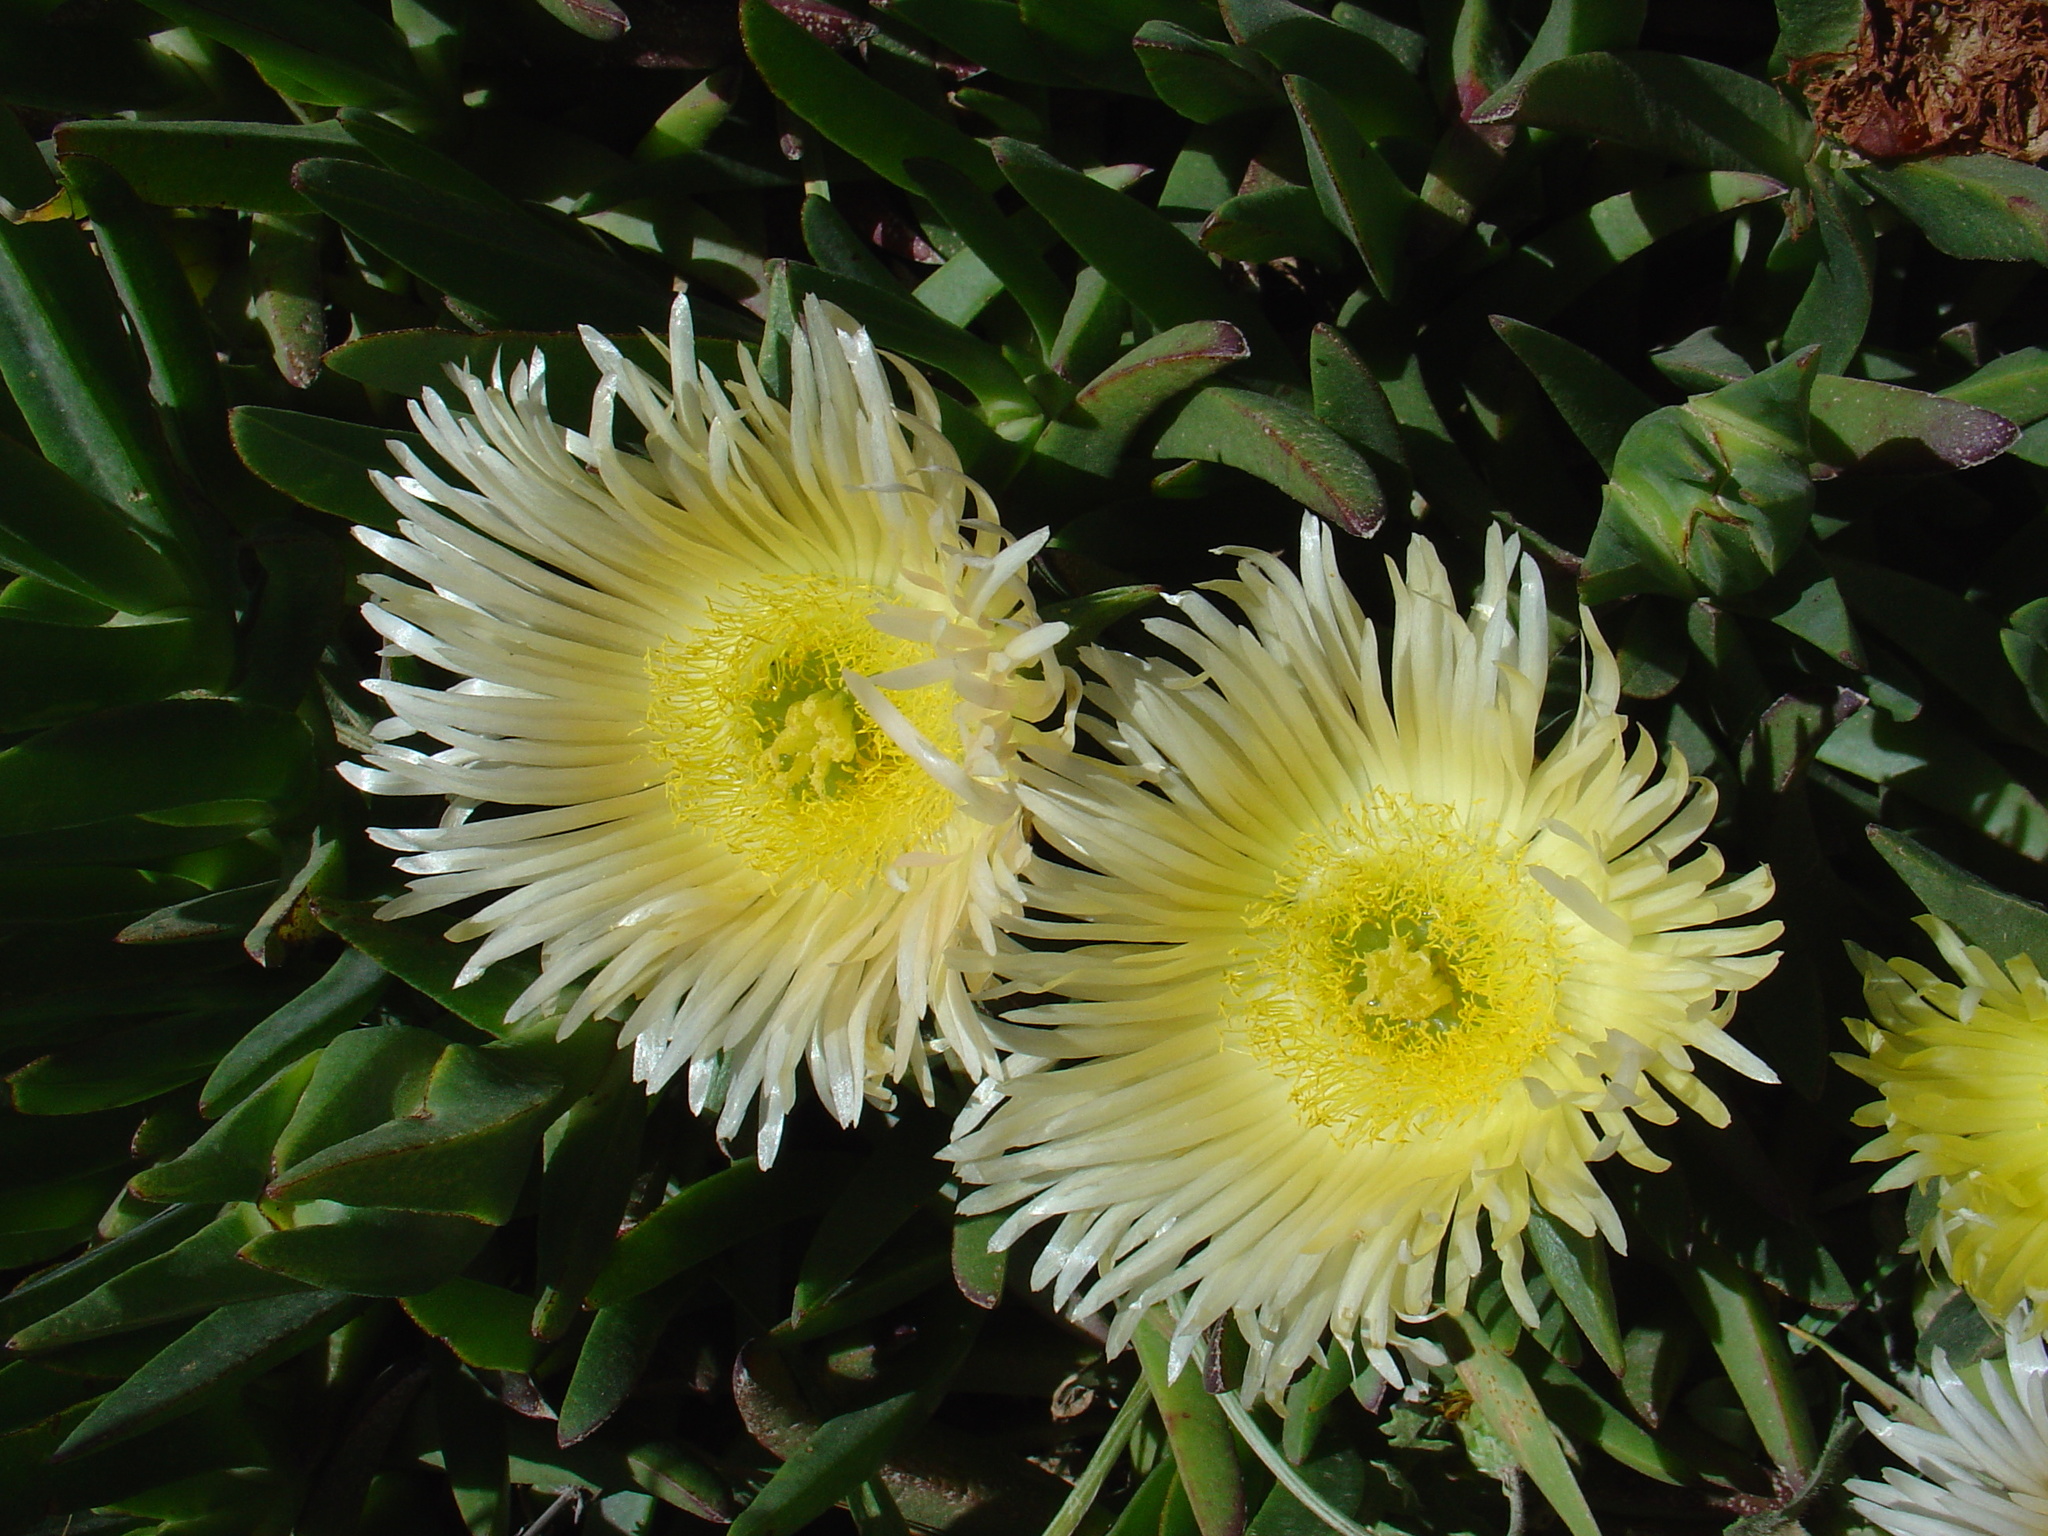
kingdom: Plantae
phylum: Tracheophyta
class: Magnoliopsida
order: Caryophyllales
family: Aizoaceae
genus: Carpobrotus
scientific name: Carpobrotus edulis
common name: Hottentot-fig
